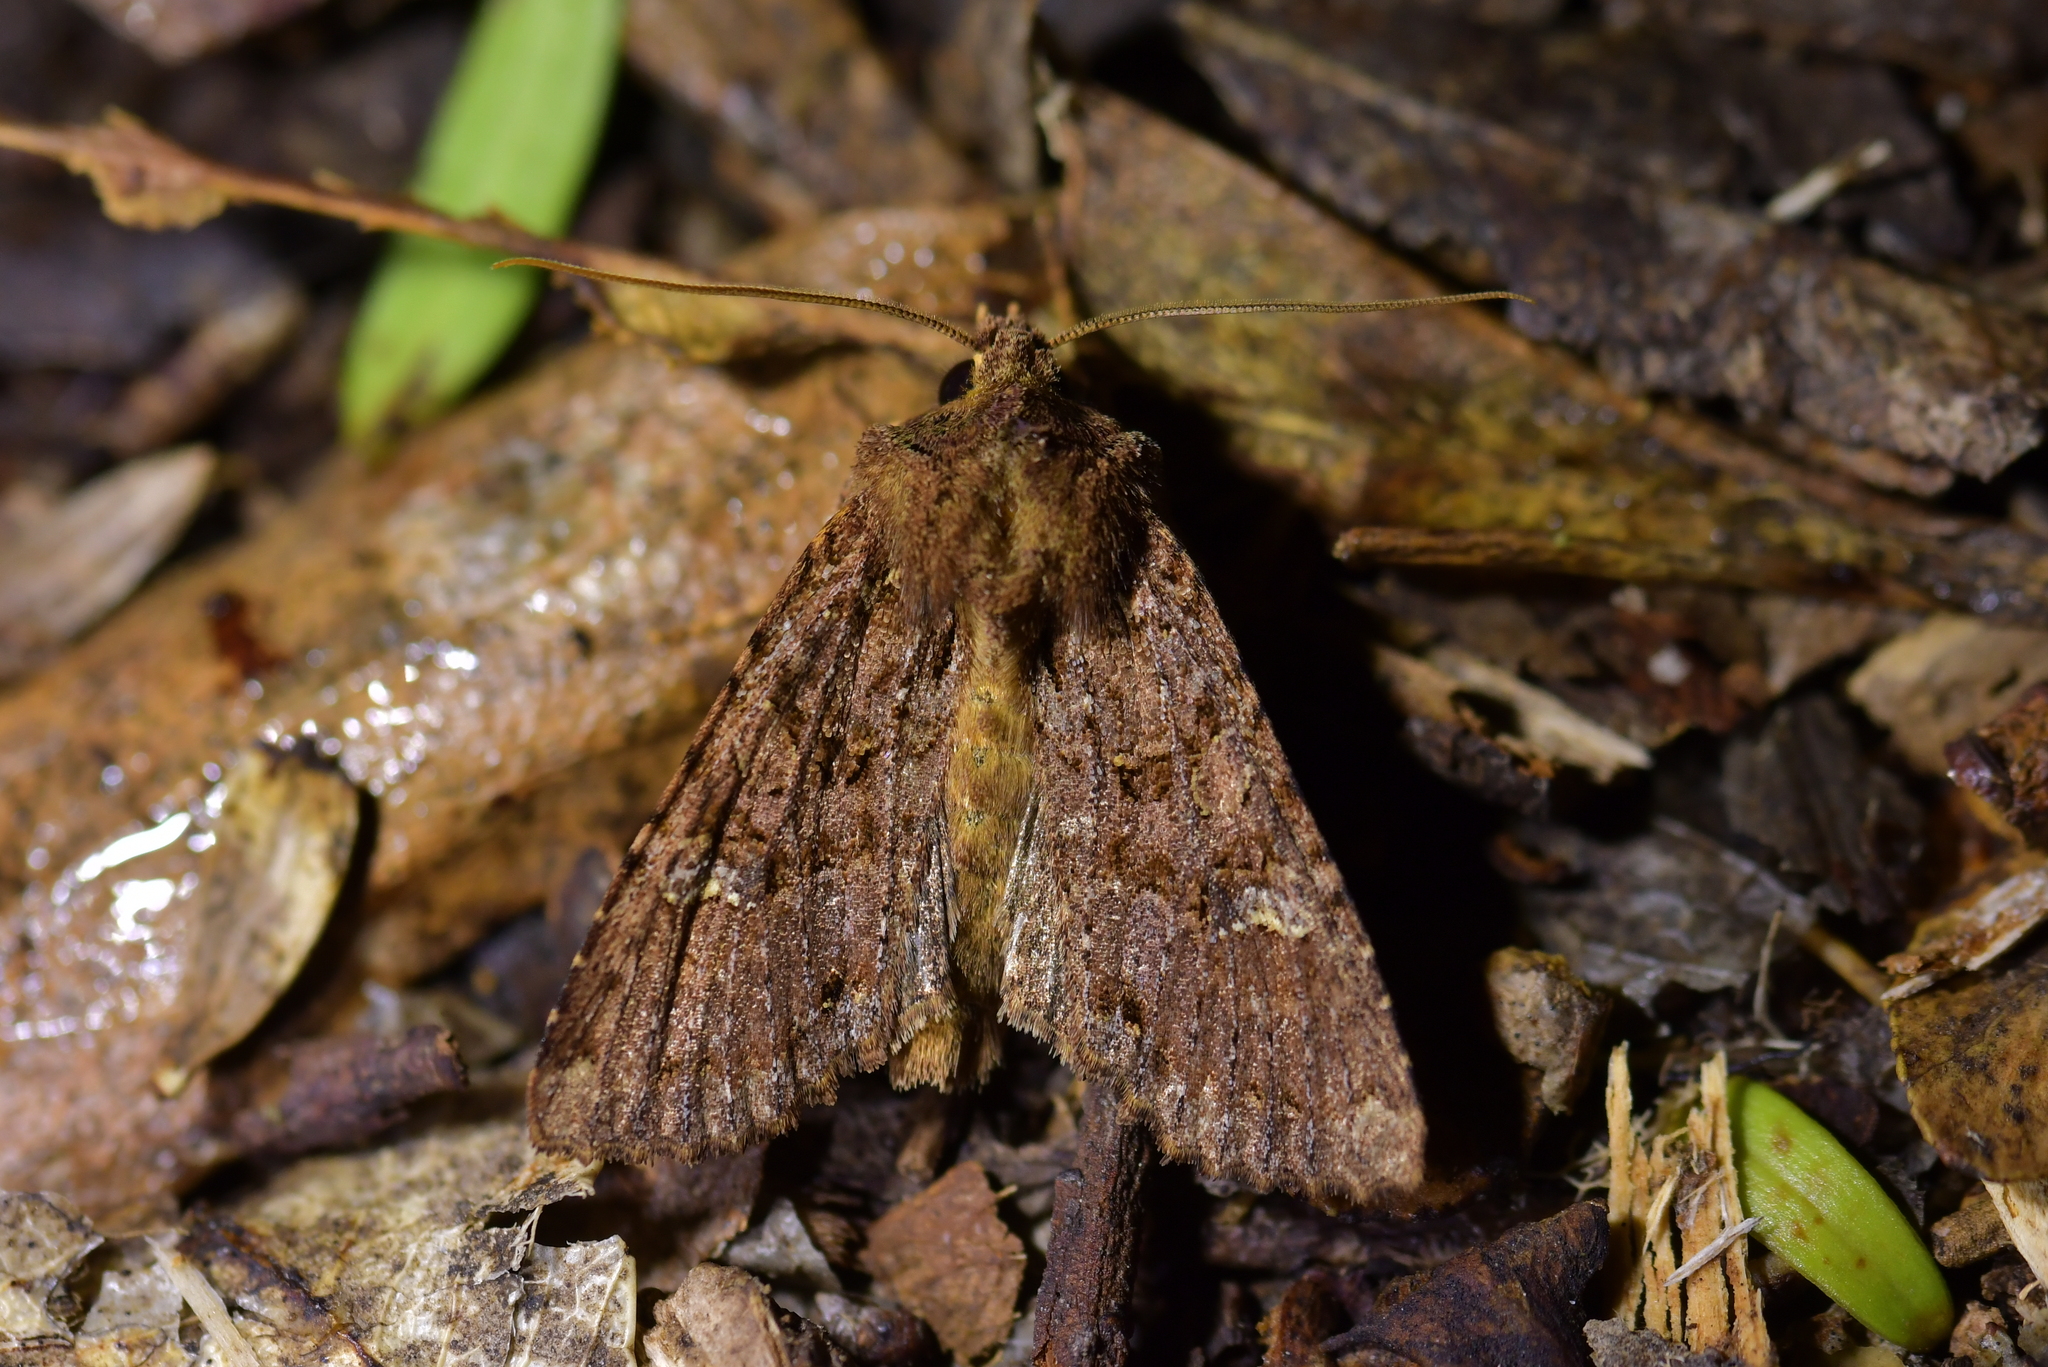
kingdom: Animalia
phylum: Arthropoda
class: Insecta
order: Lepidoptera
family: Noctuidae
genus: Meterana
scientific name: Meterana
